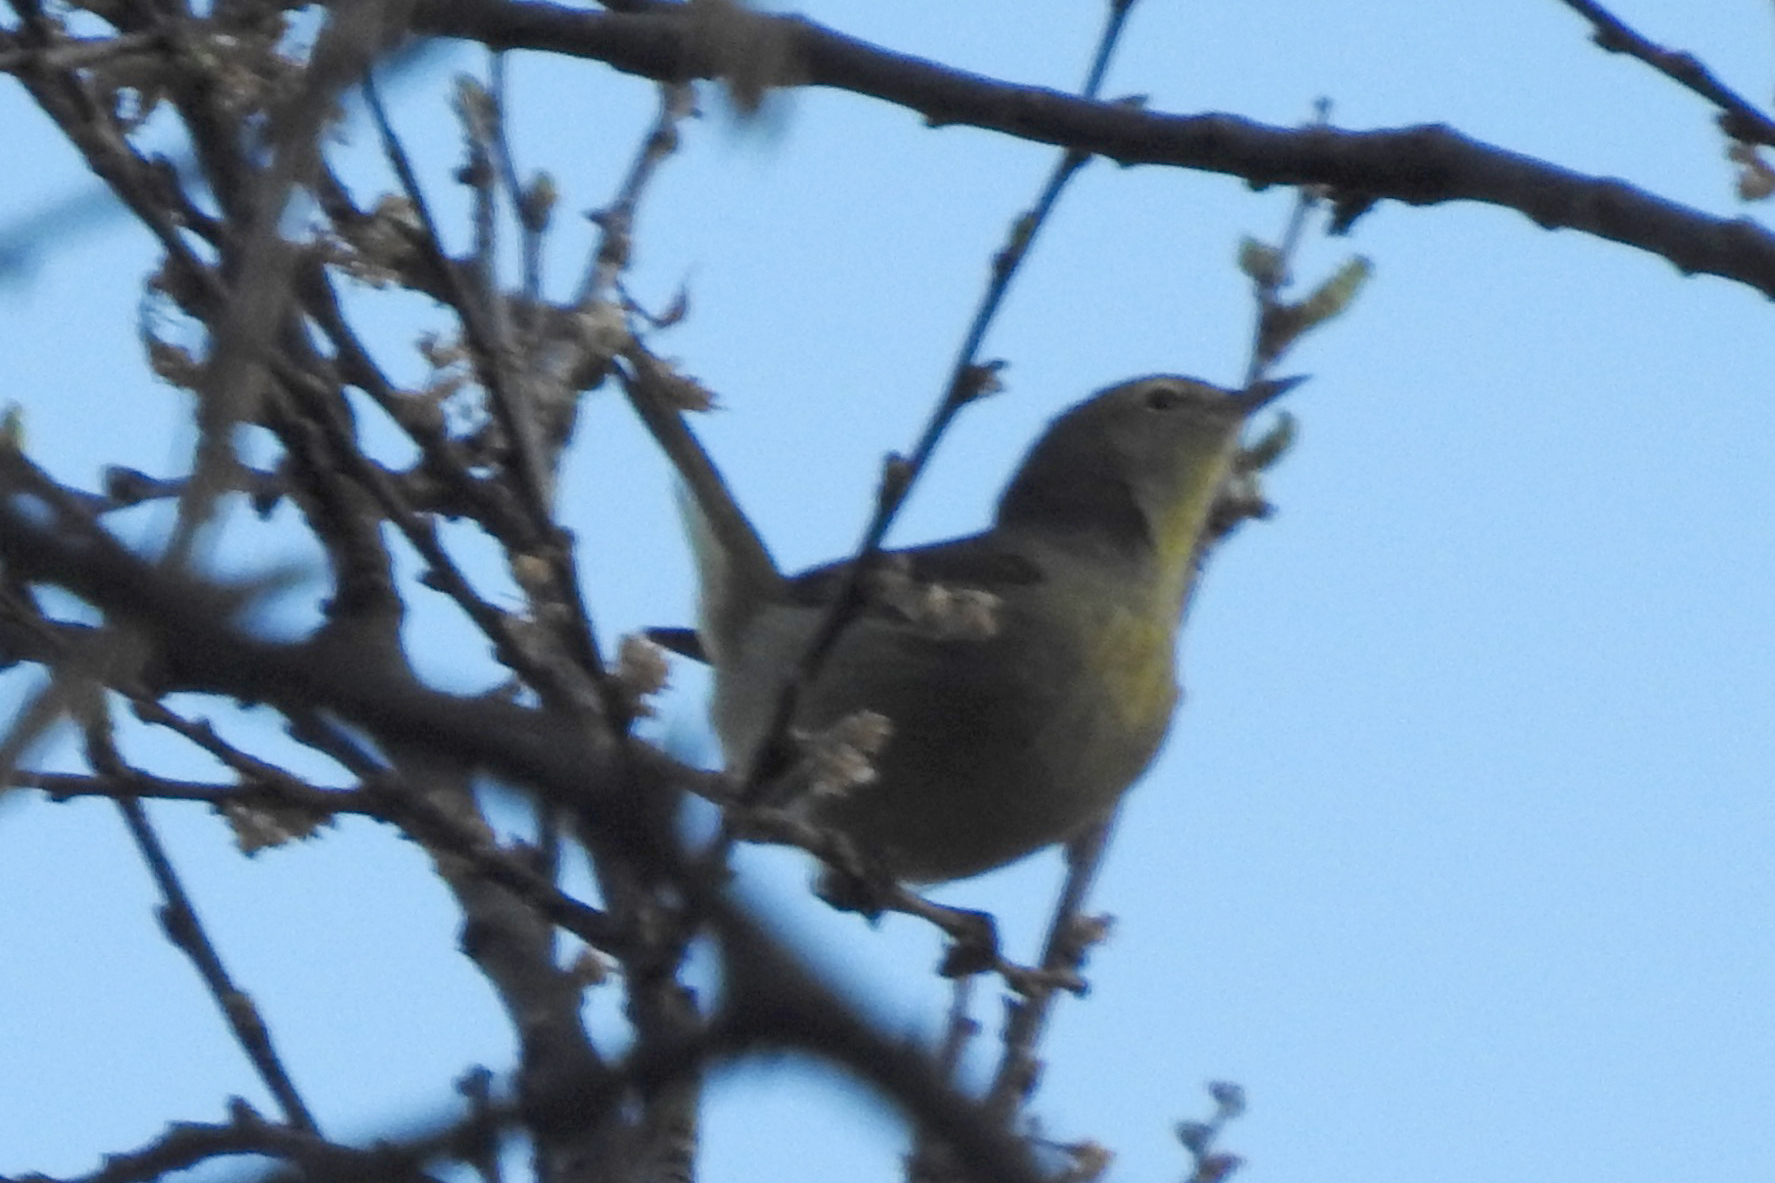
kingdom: Animalia
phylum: Chordata
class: Aves
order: Passeriformes
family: Parulidae
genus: Leiothlypis
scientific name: Leiothlypis celata
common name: Orange-crowned warbler
